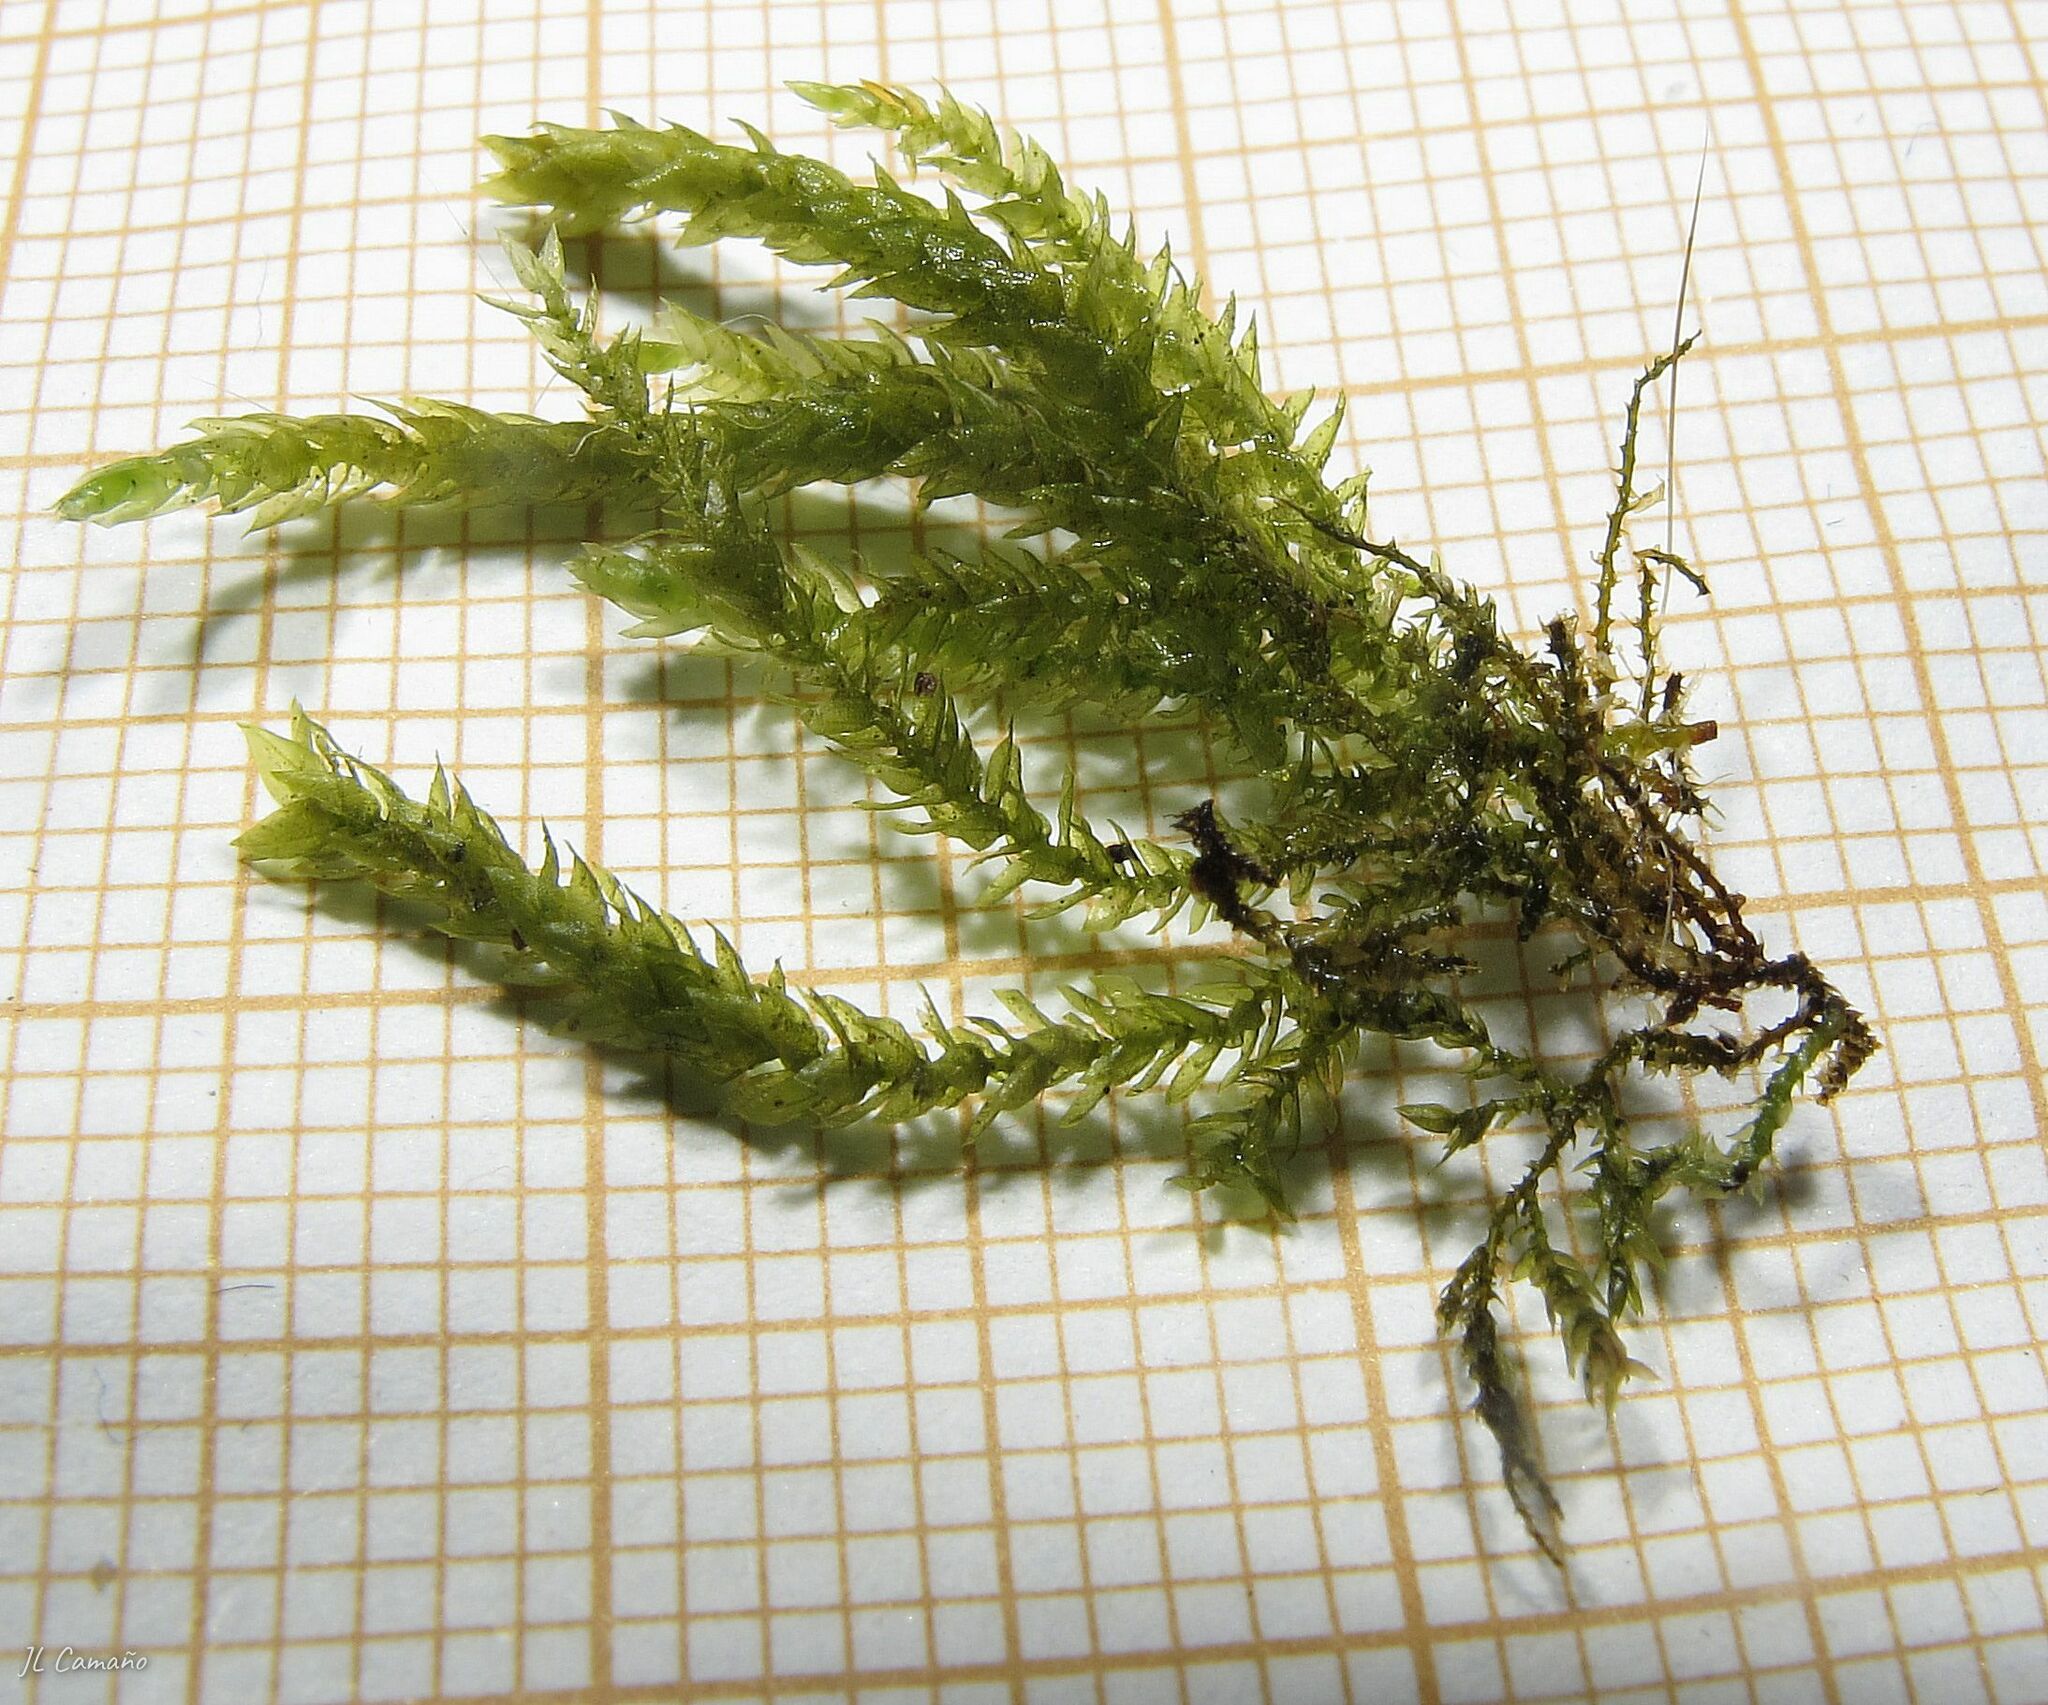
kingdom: Plantae
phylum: Bryophyta
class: Bryopsida
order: Hypnales
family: Brachytheciaceae
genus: Rhynchostegium
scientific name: Rhynchostegium riparioides
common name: Platyhypnidium moss
